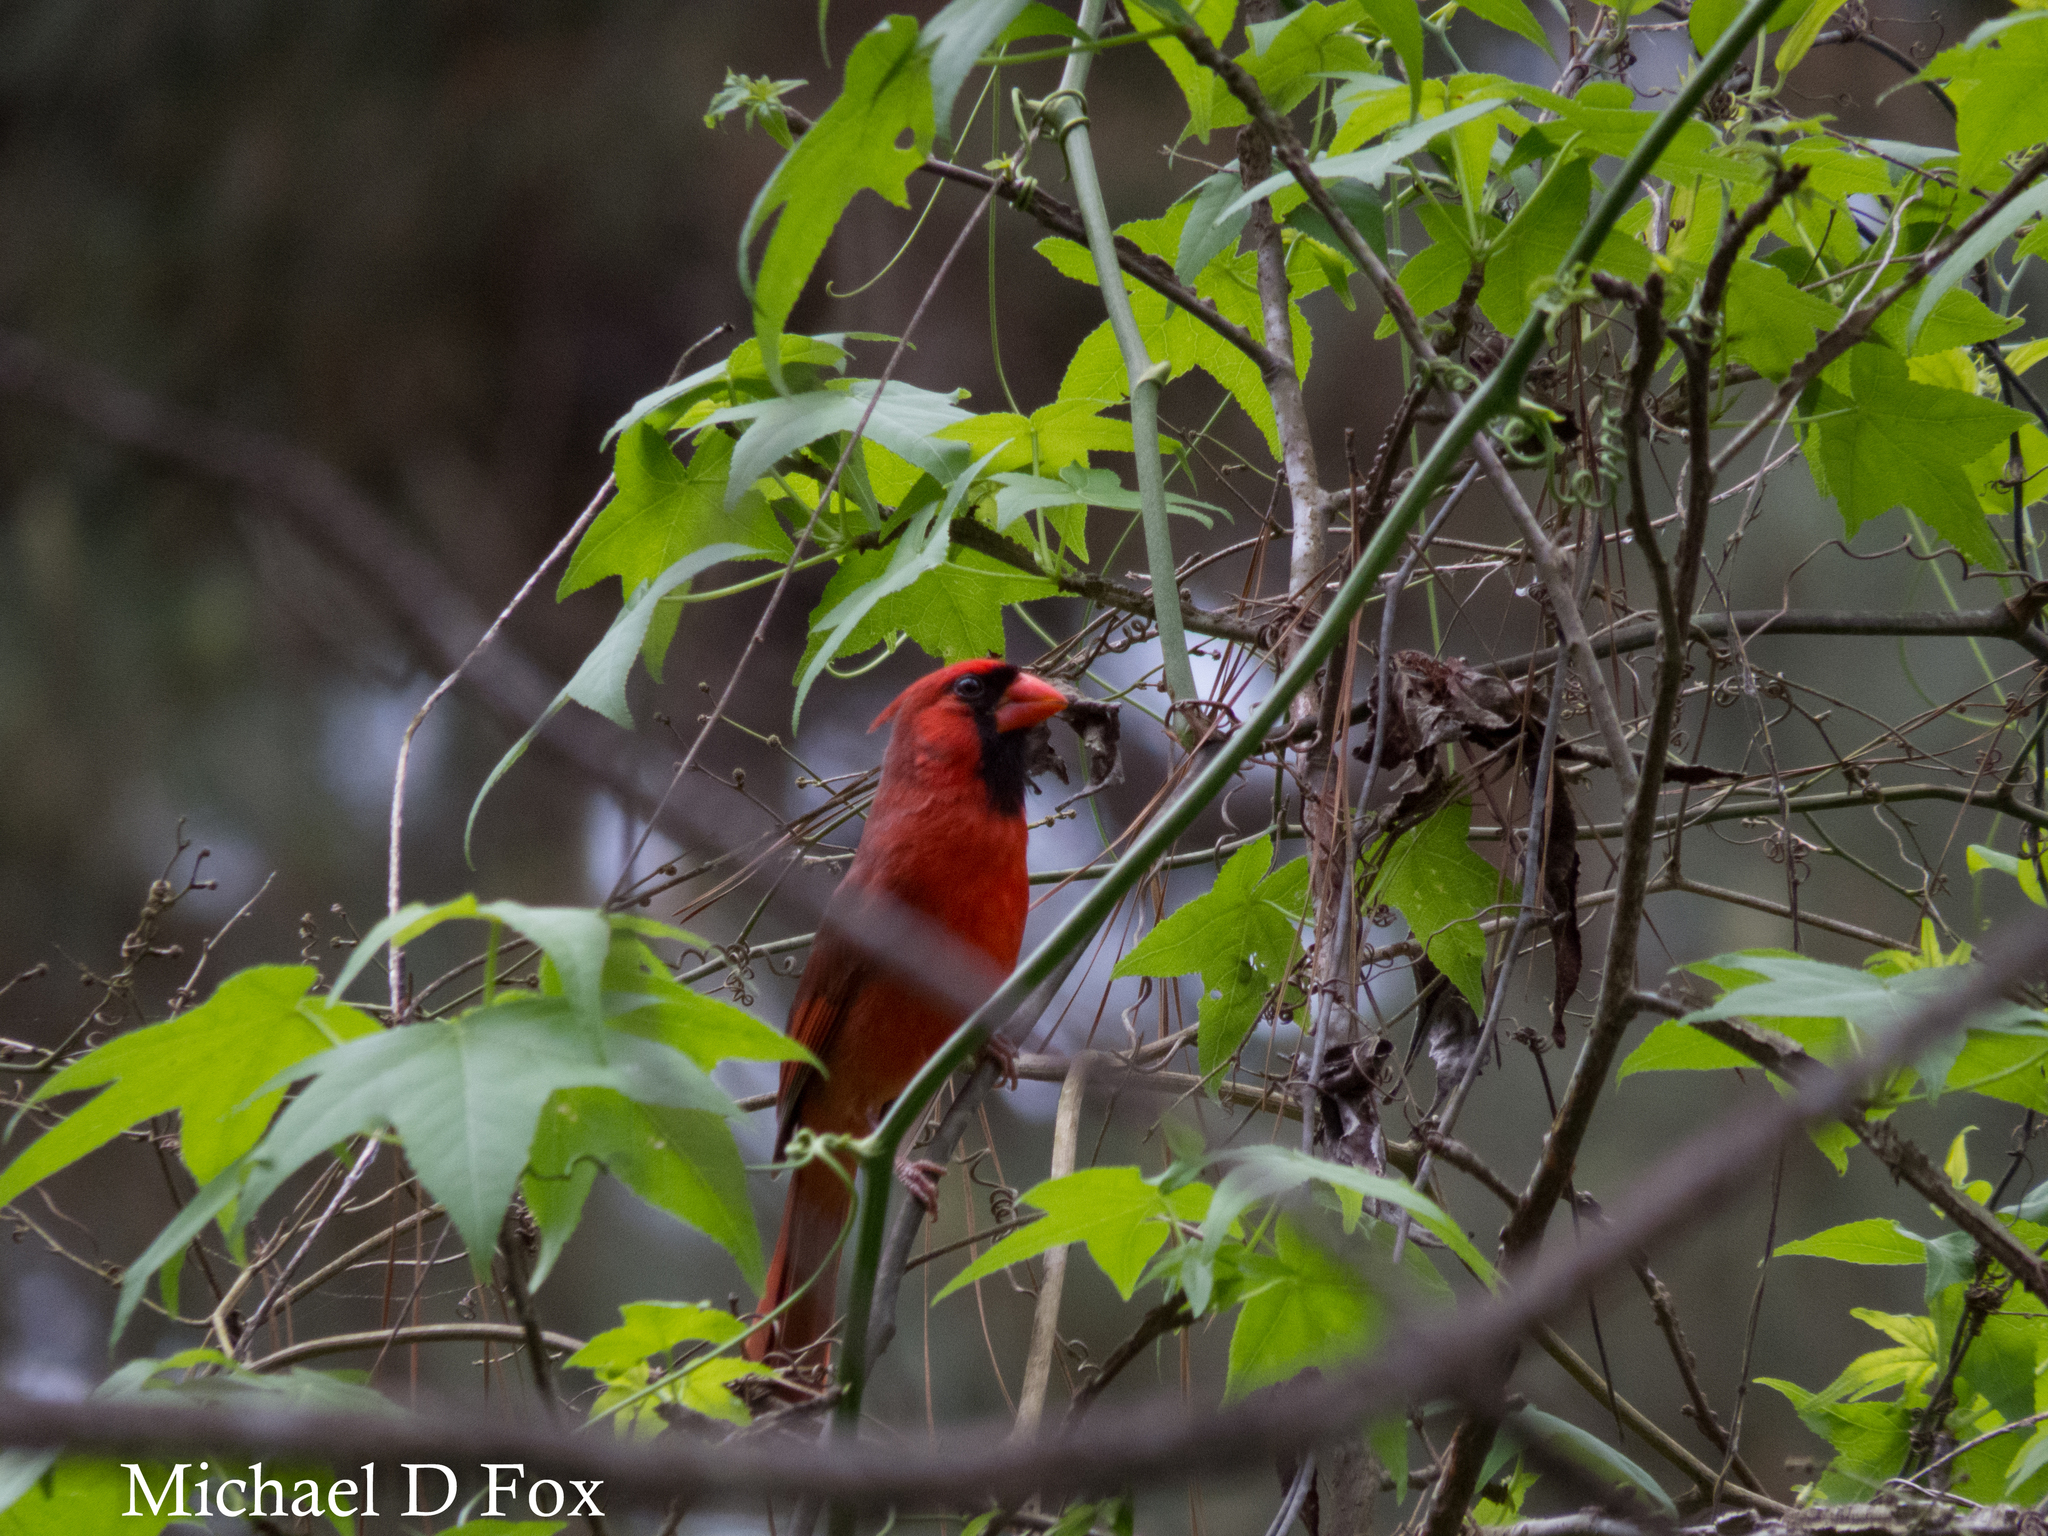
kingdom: Animalia
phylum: Chordata
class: Aves
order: Passeriformes
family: Cardinalidae
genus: Cardinalis
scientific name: Cardinalis cardinalis
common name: Northern cardinal
